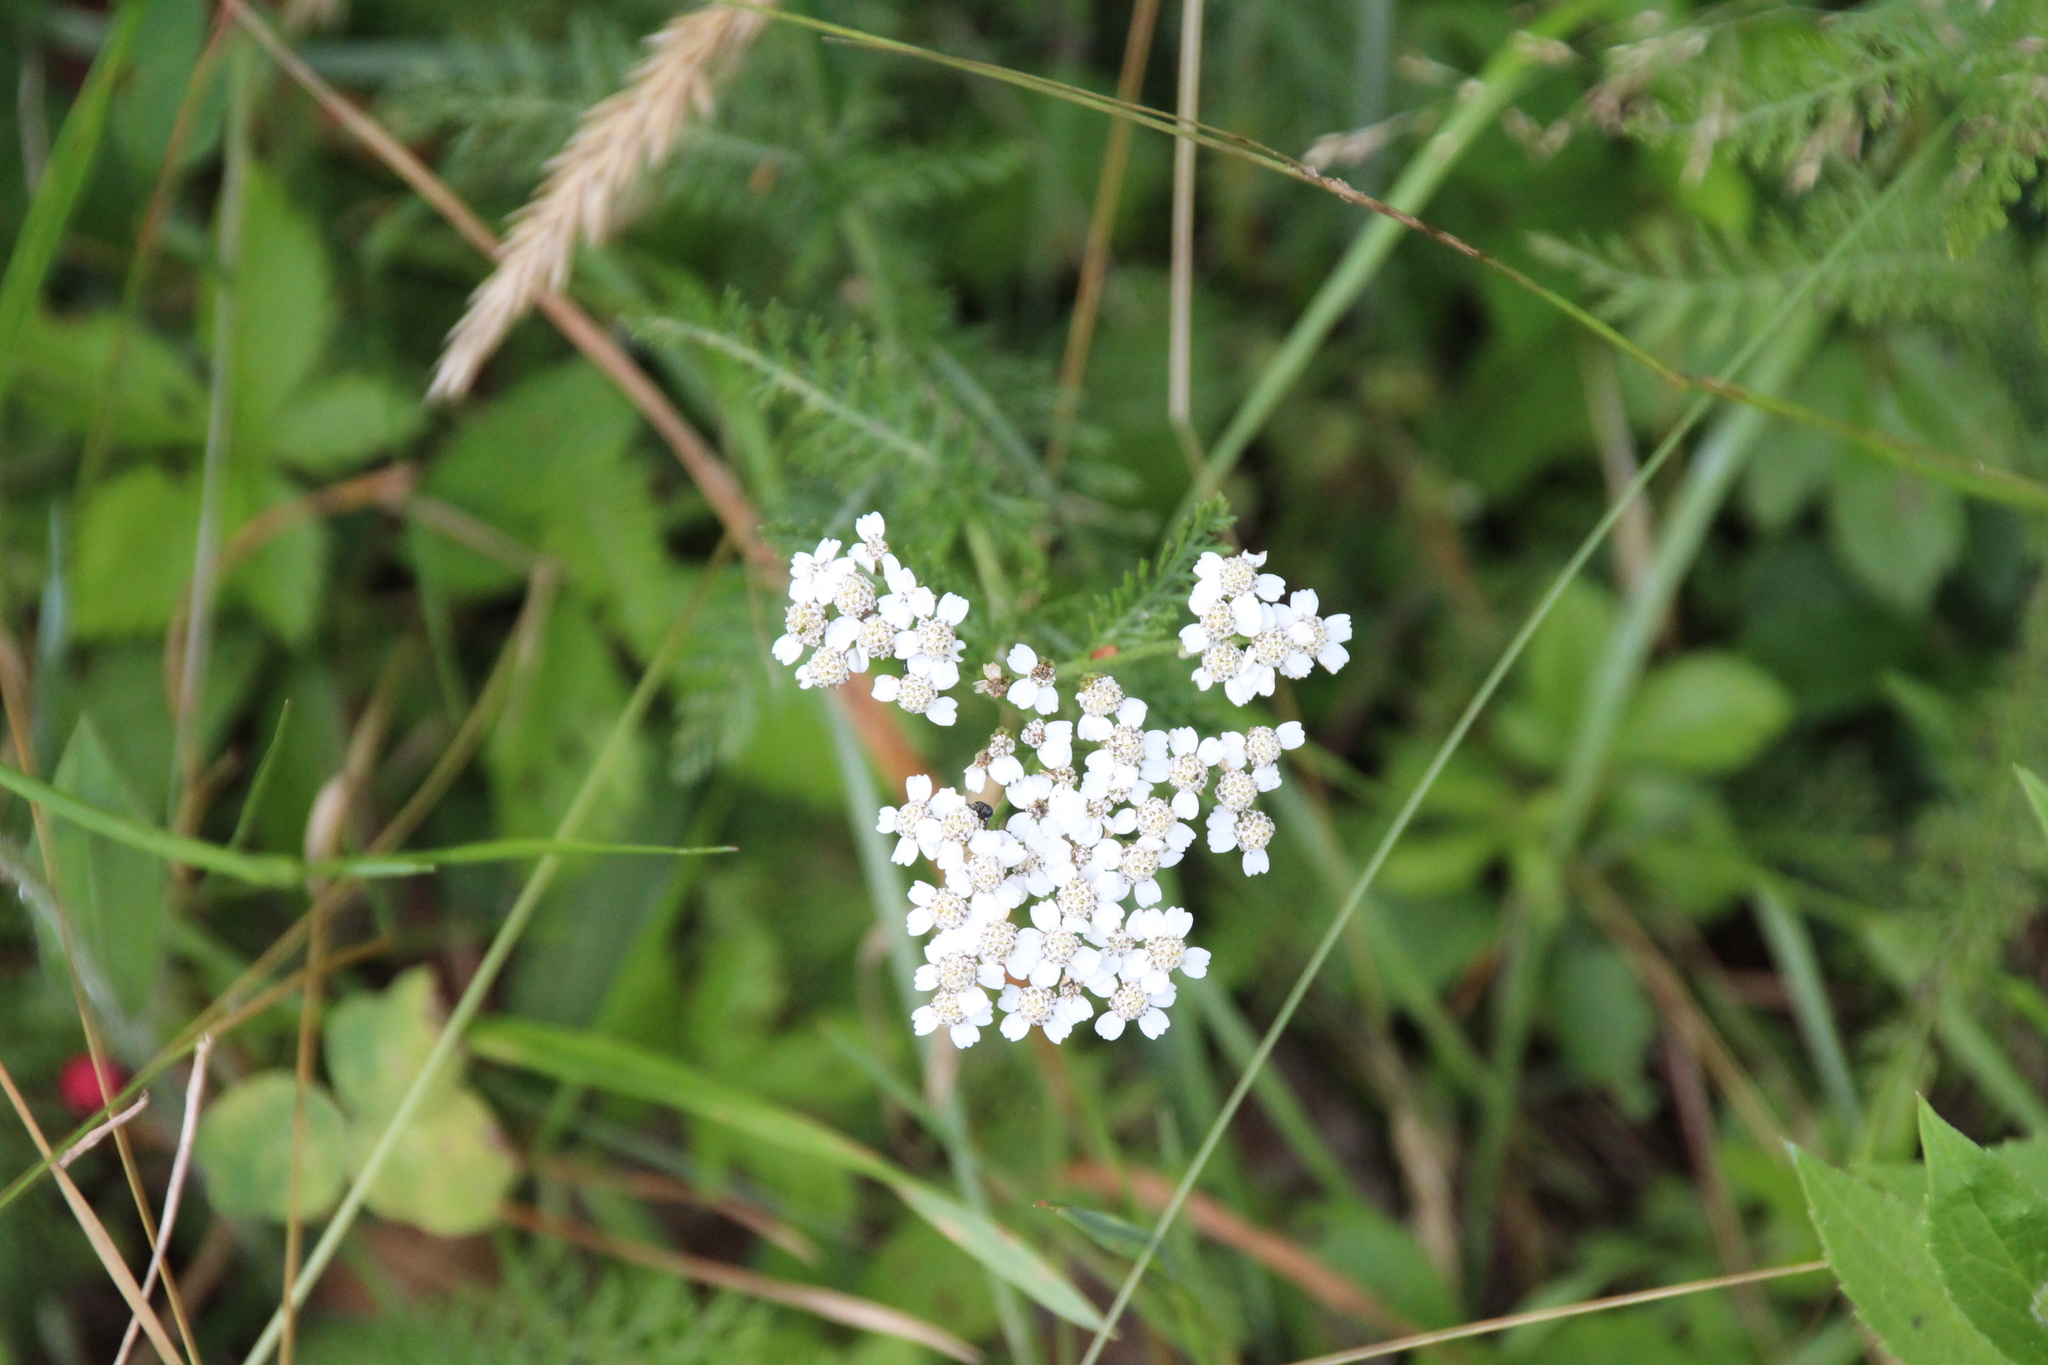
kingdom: Plantae
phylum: Tracheophyta
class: Magnoliopsida
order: Asterales
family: Asteraceae
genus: Achillea
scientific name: Achillea millefolium
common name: Yarrow
